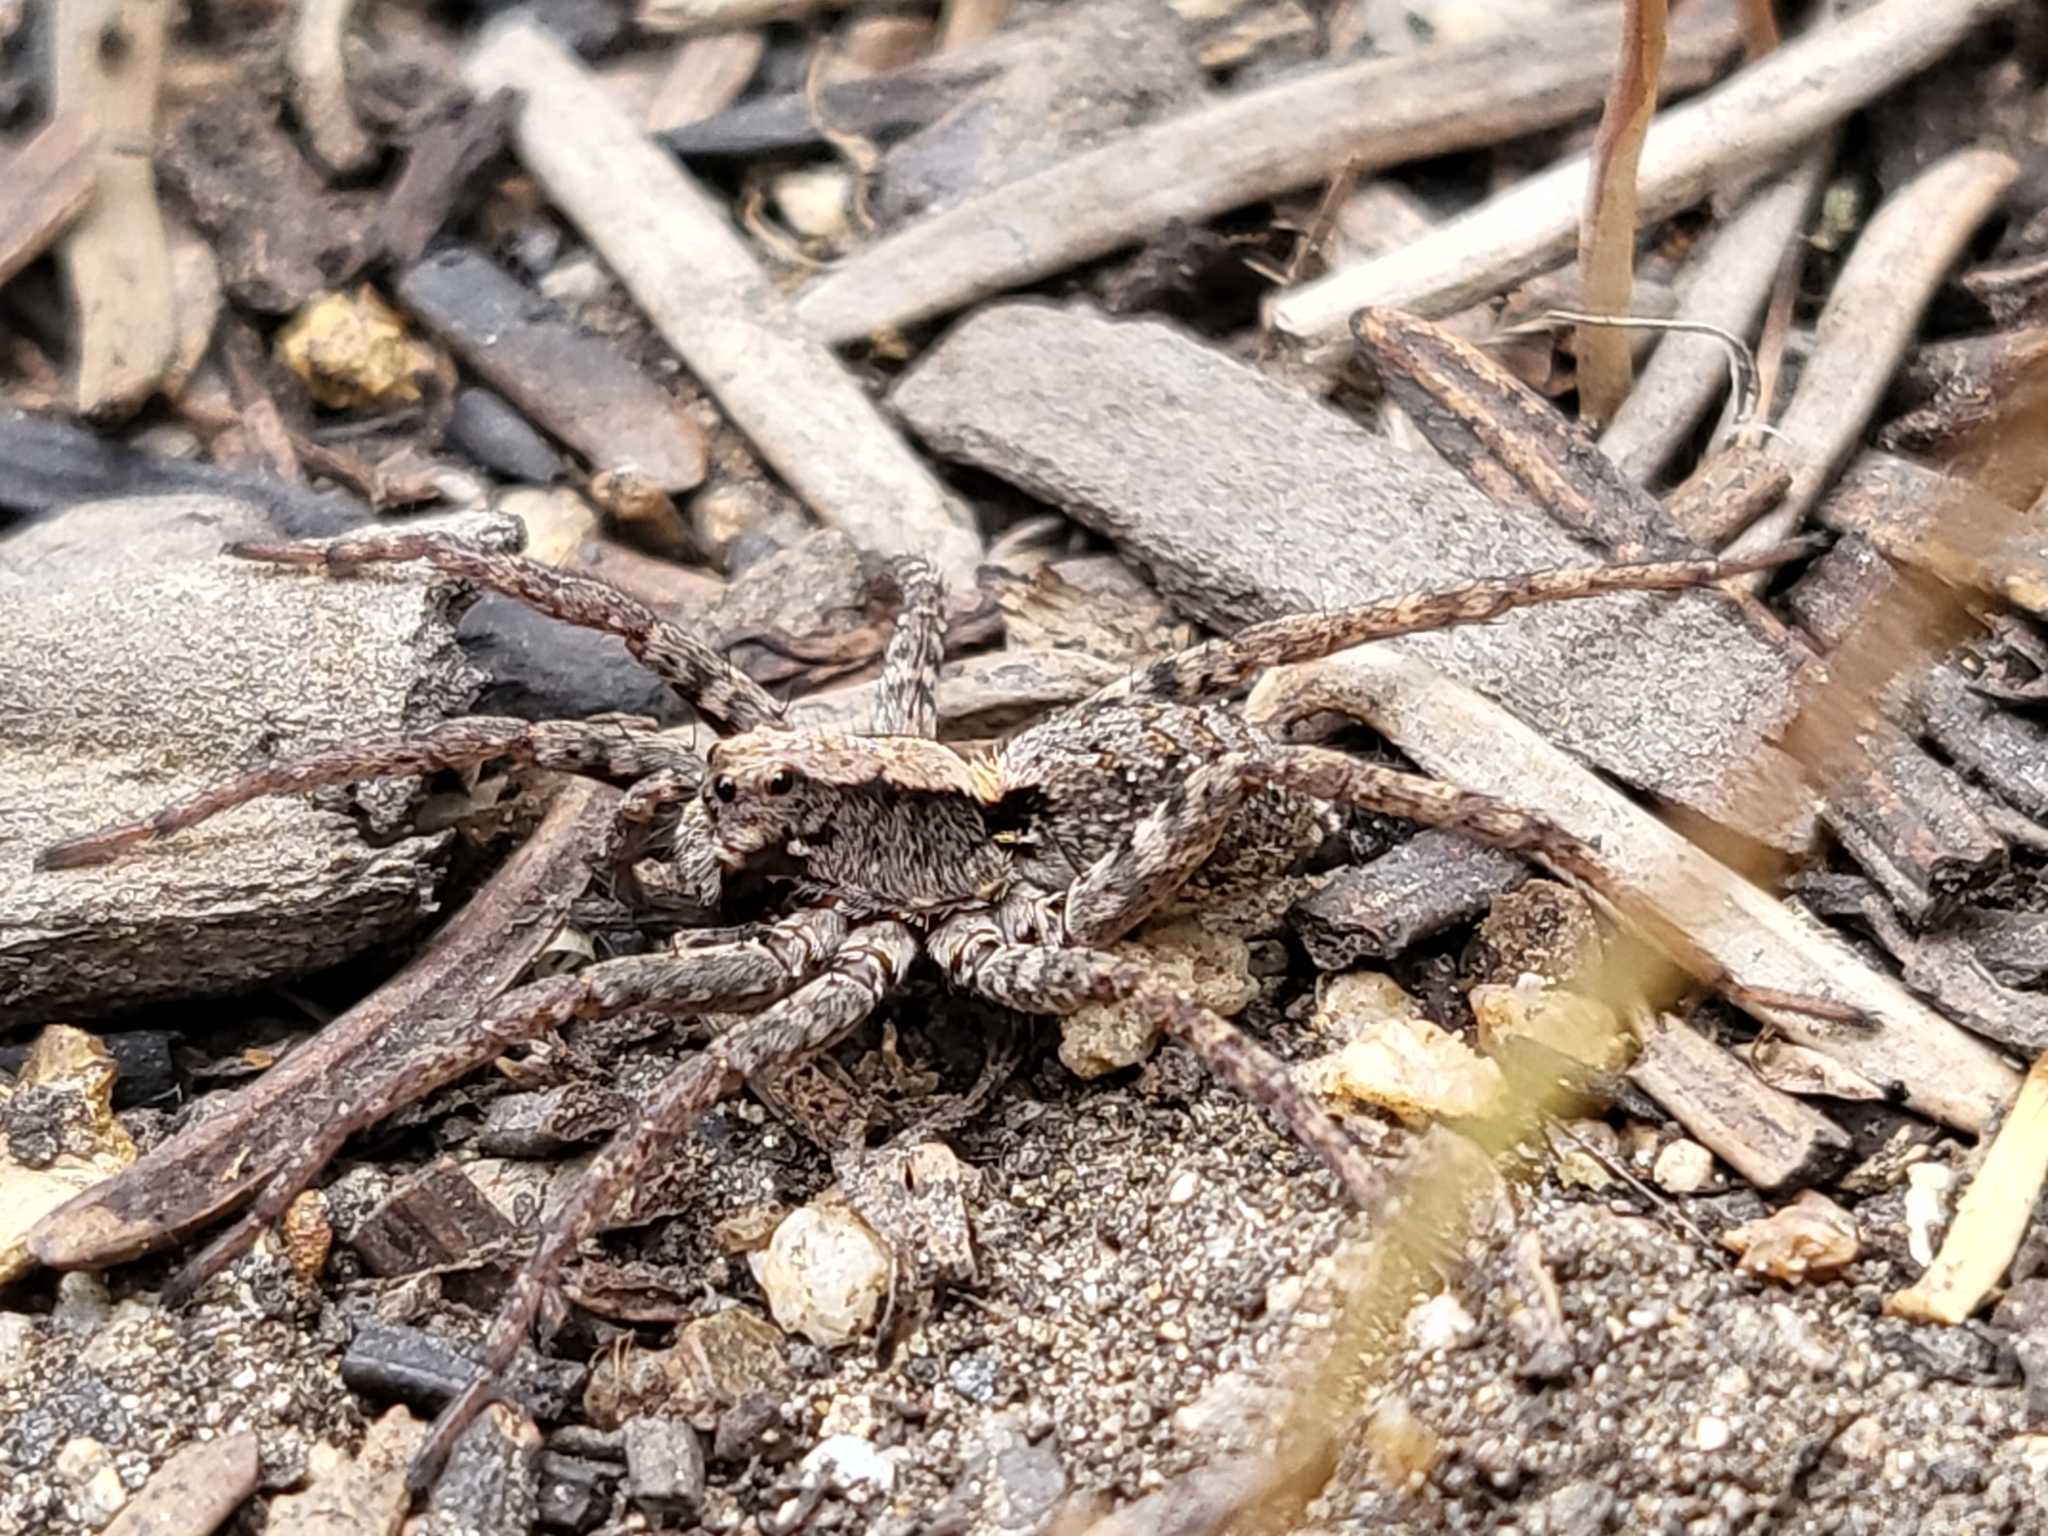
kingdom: Animalia
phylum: Arthropoda
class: Arachnida
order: Araneae
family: Lycosidae
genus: Alopecosa
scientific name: Alopecosa kochi
